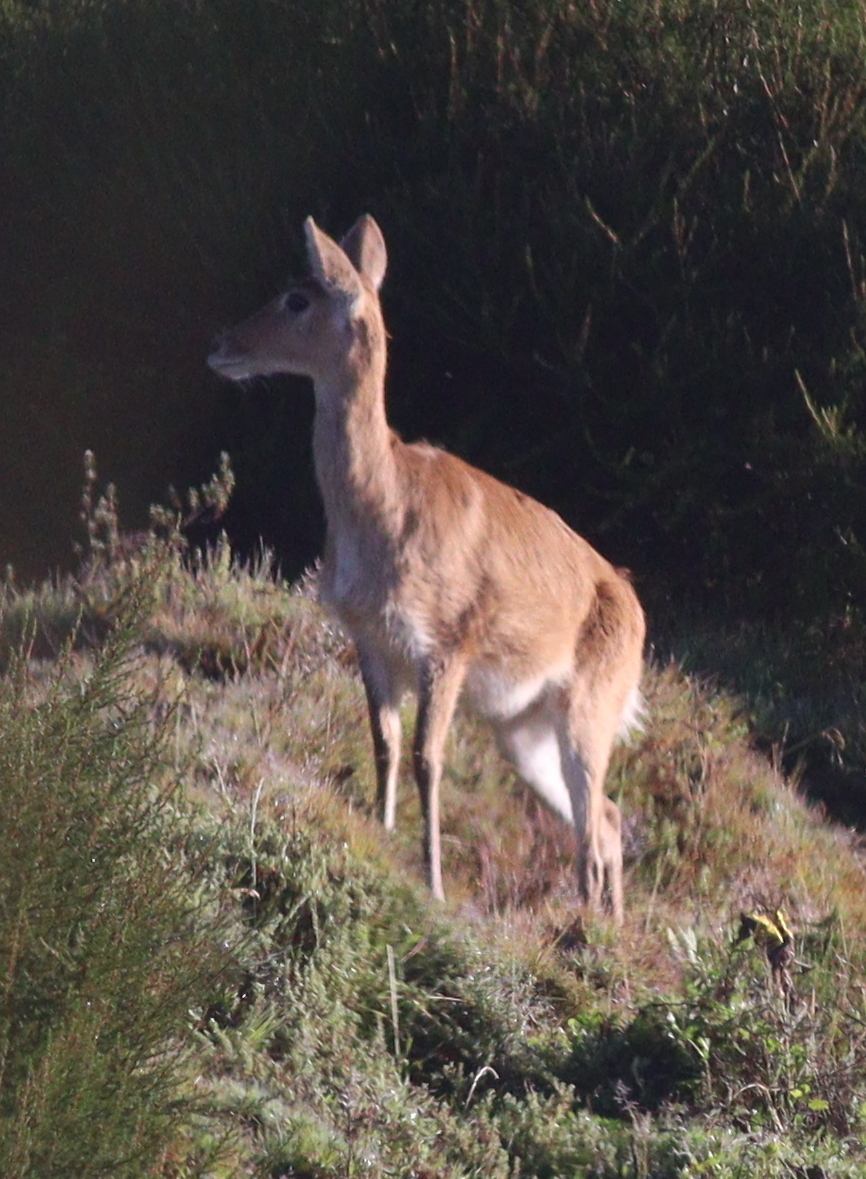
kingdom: Animalia
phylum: Chordata
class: Mammalia
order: Artiodactyla
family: Bovidae
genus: Redunca
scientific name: Redunca redunca
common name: Common reedbuck
